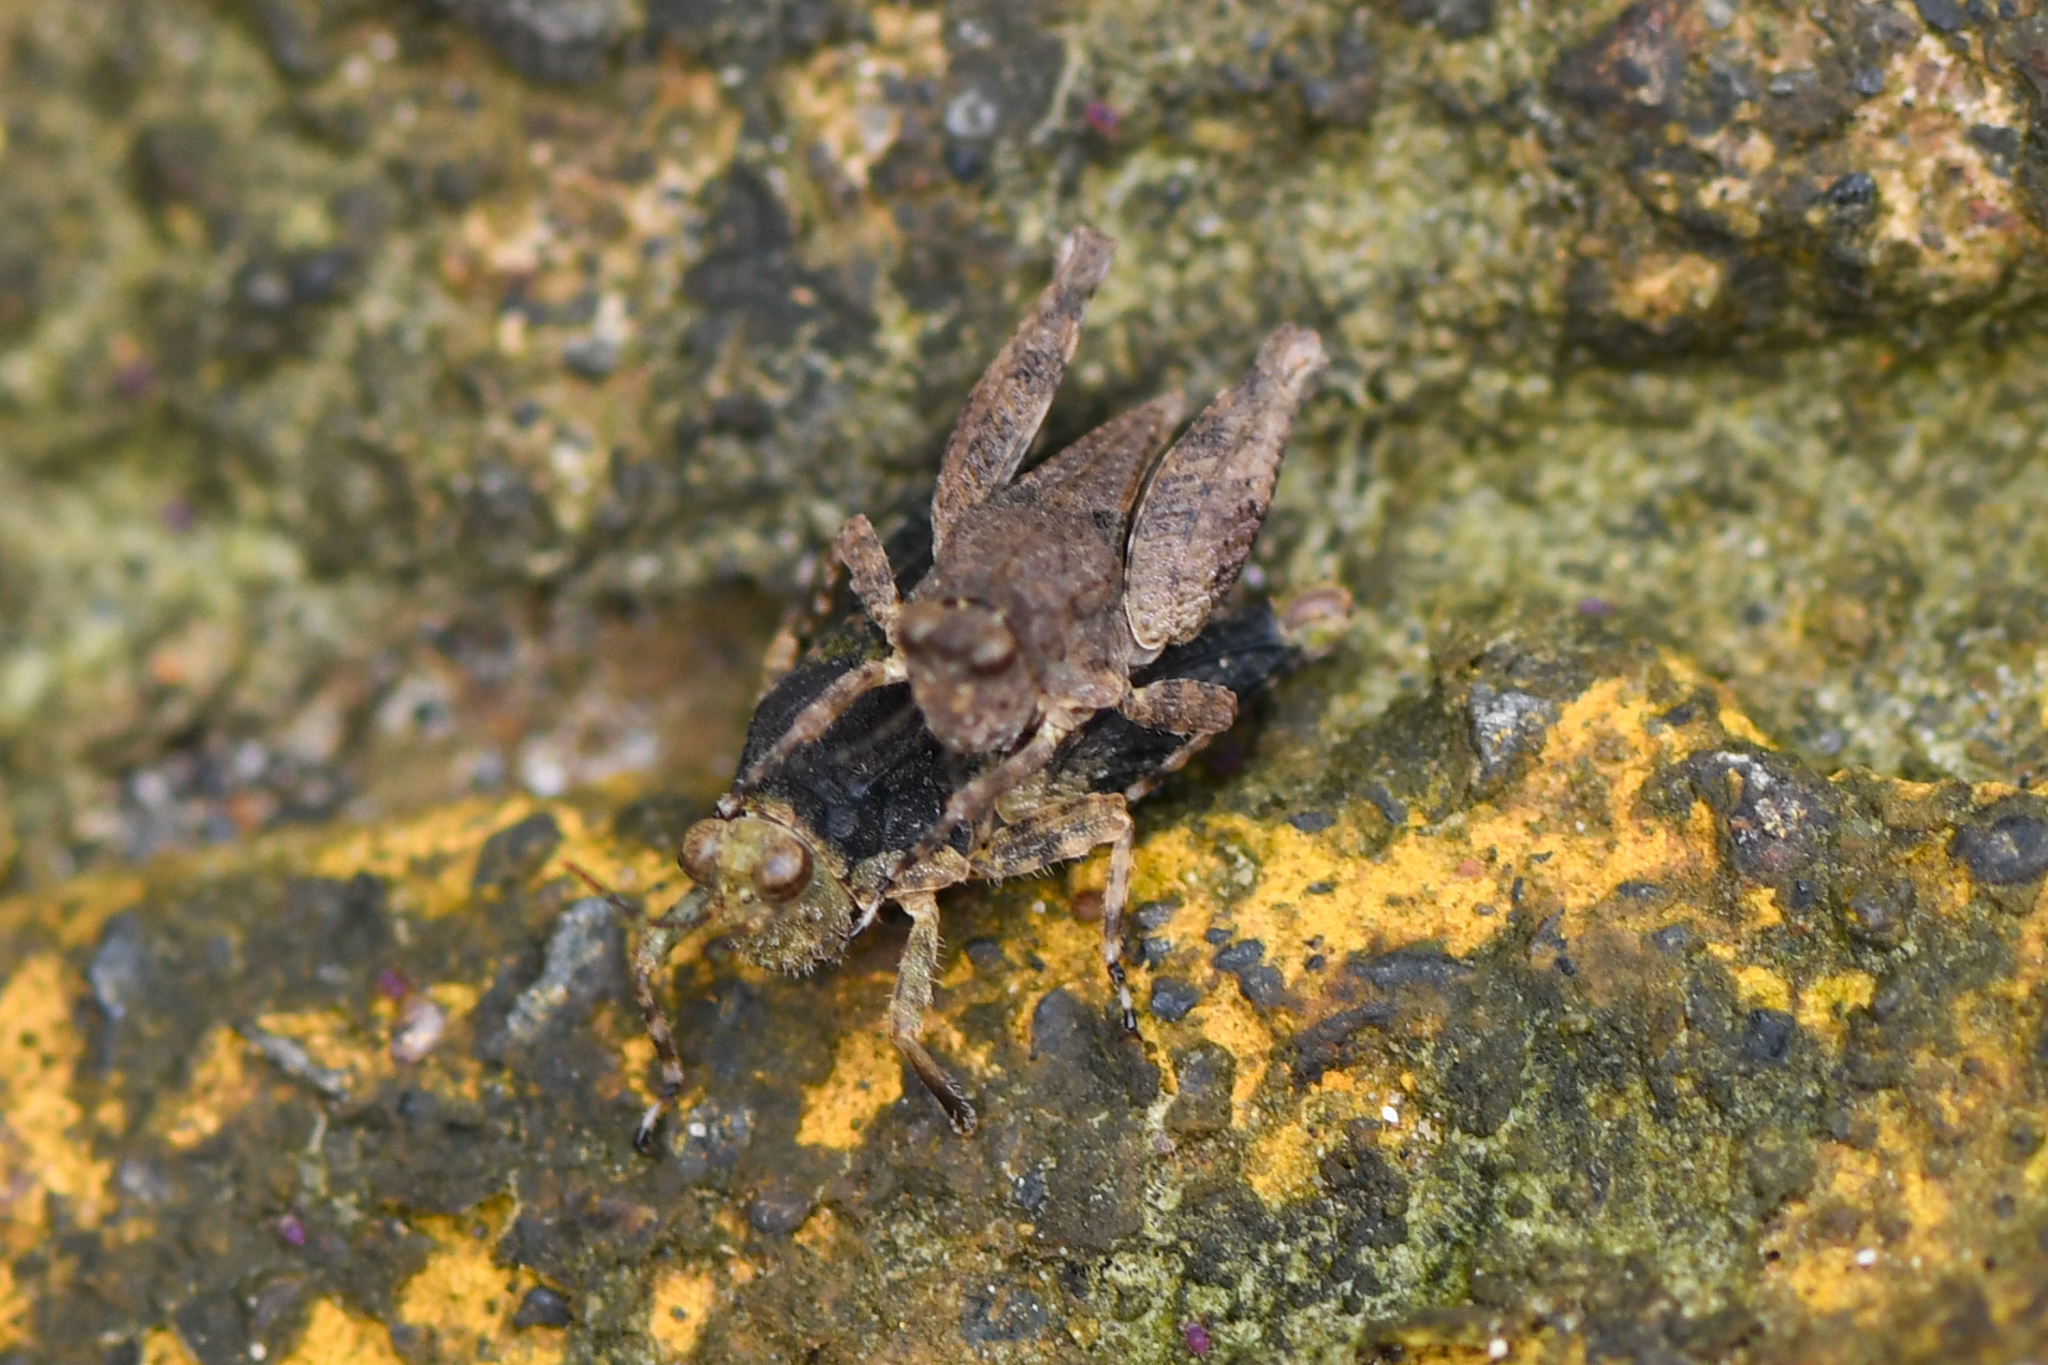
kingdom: Animalia
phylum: Arthropoda
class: Insecta
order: Orthoptera
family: Tetrigidae
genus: Paratettix
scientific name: Paratettix mexicanus
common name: Mexican pygmy grasshopper
